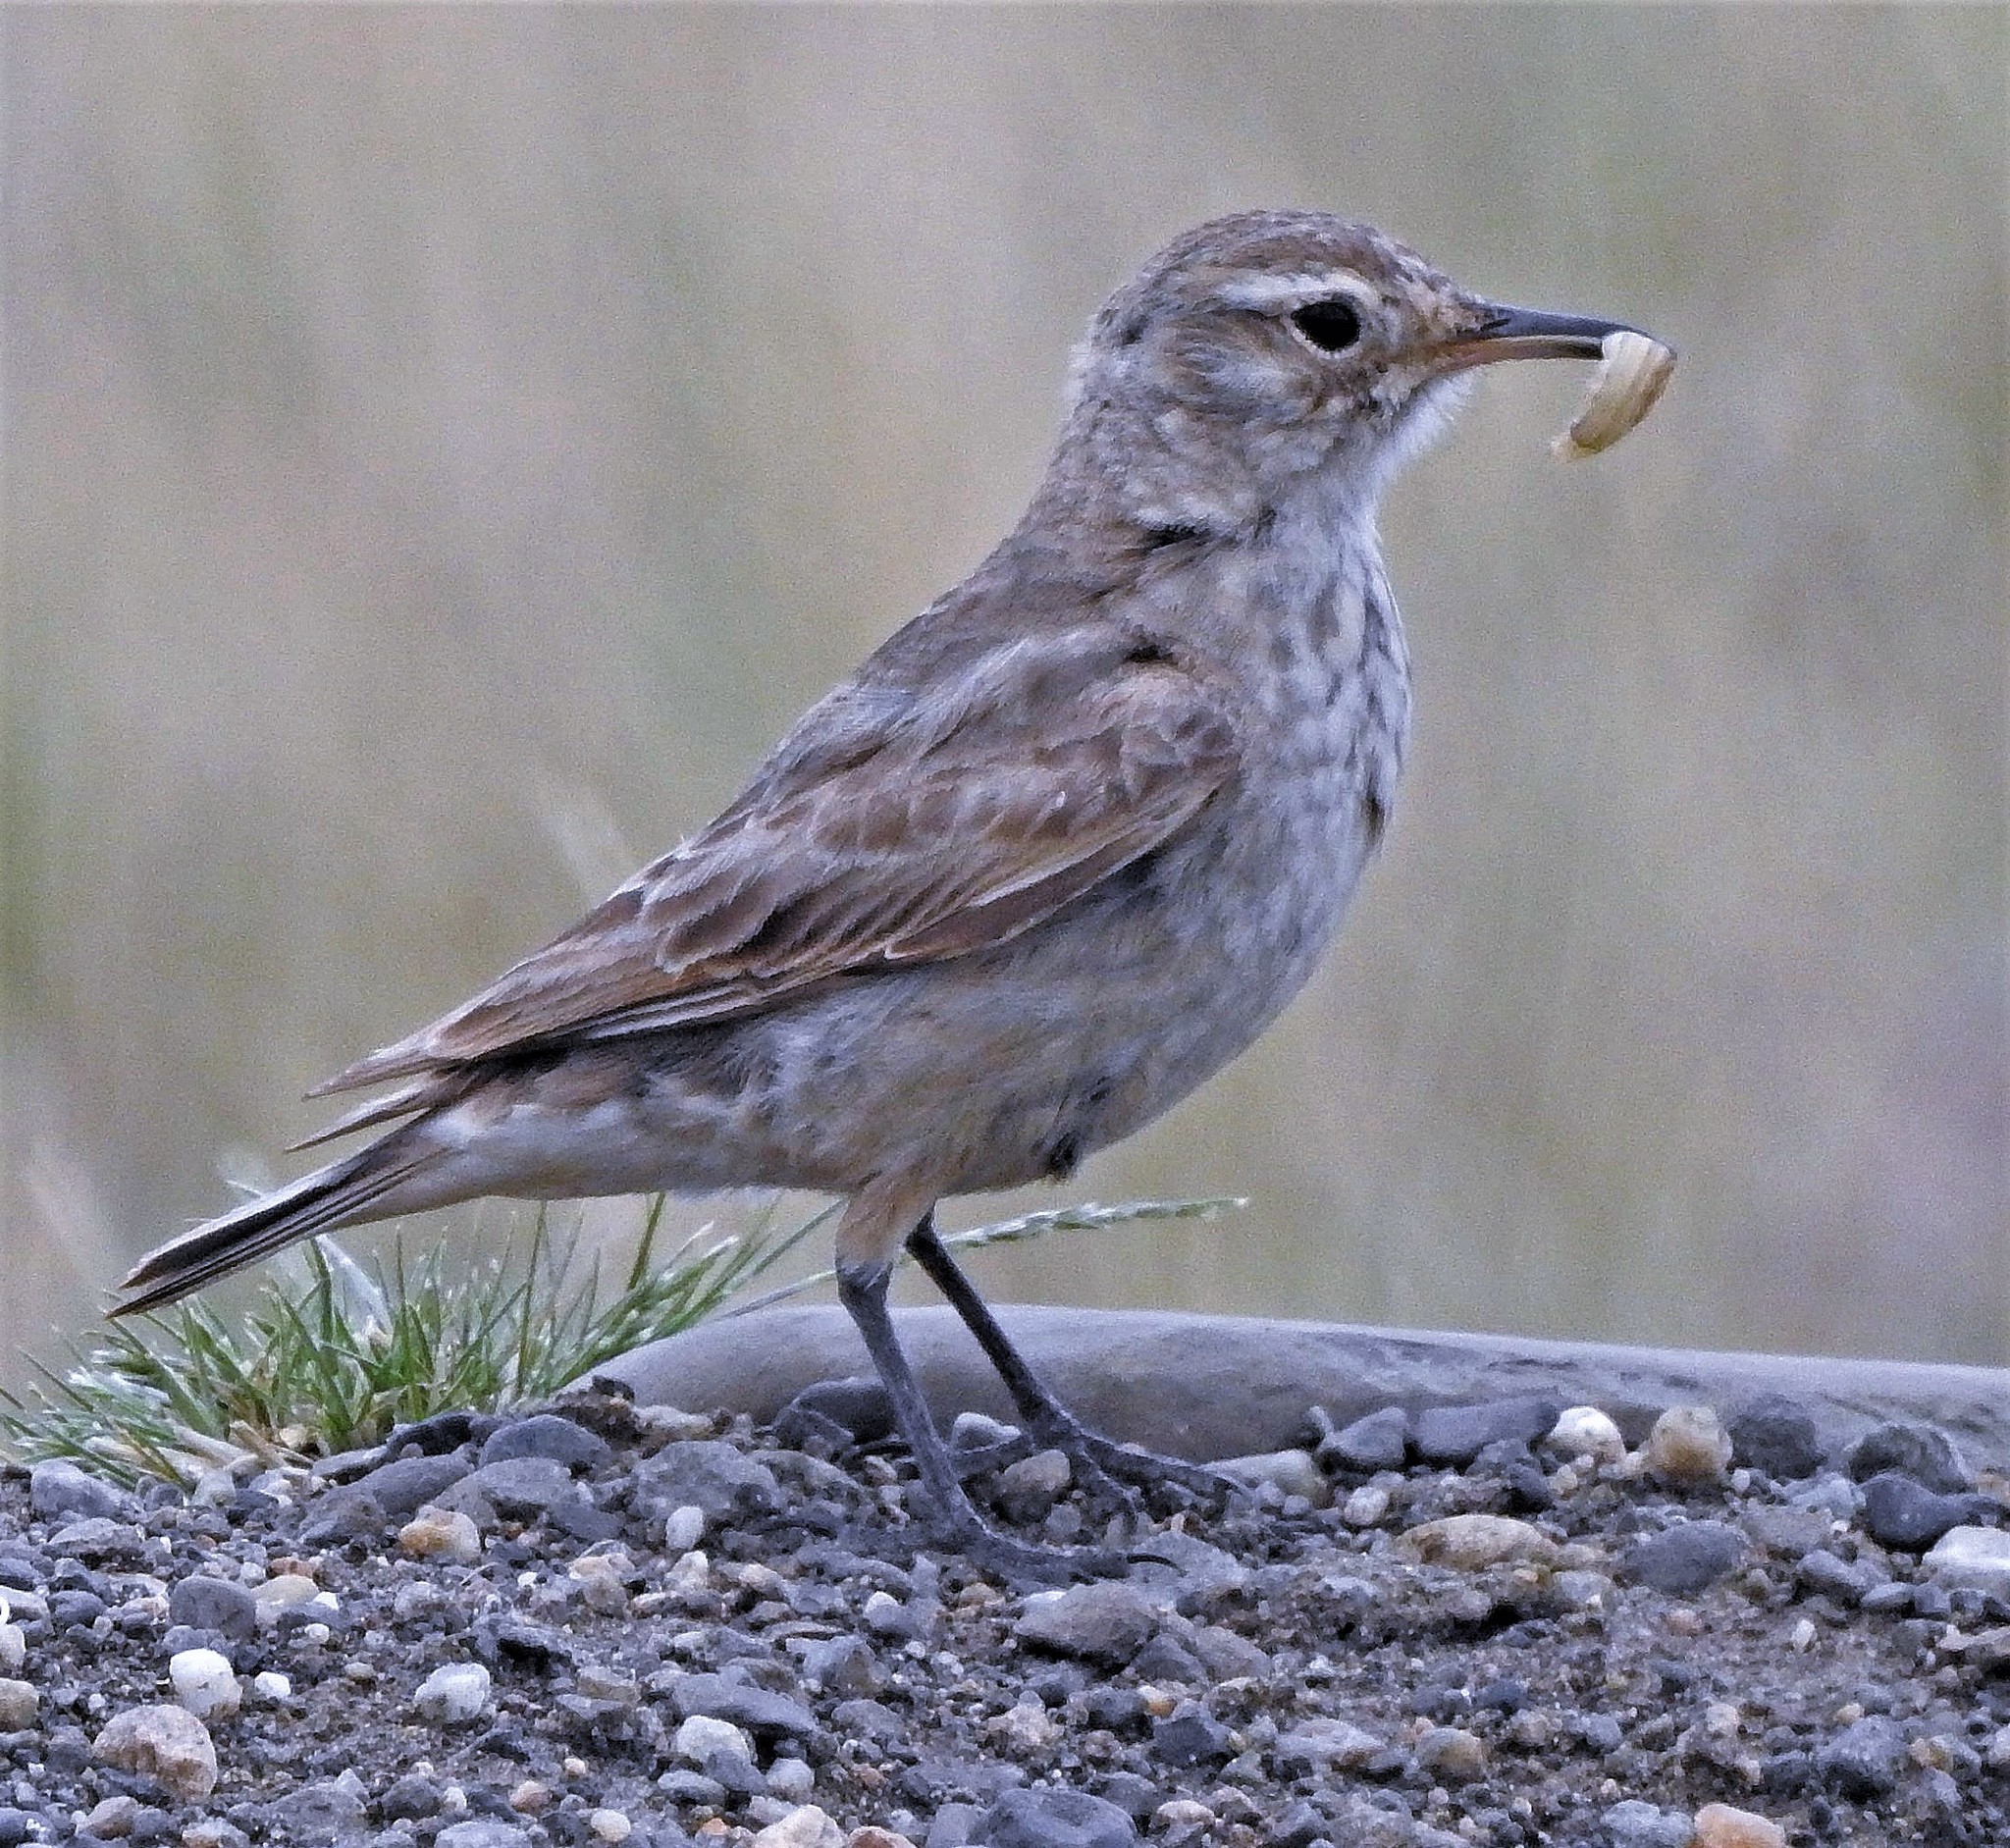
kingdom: Animalia
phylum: Chordata
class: Aves
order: Passeriformes
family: Furnariidae
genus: Geositta
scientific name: Geositta cunicularia
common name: Common miner
